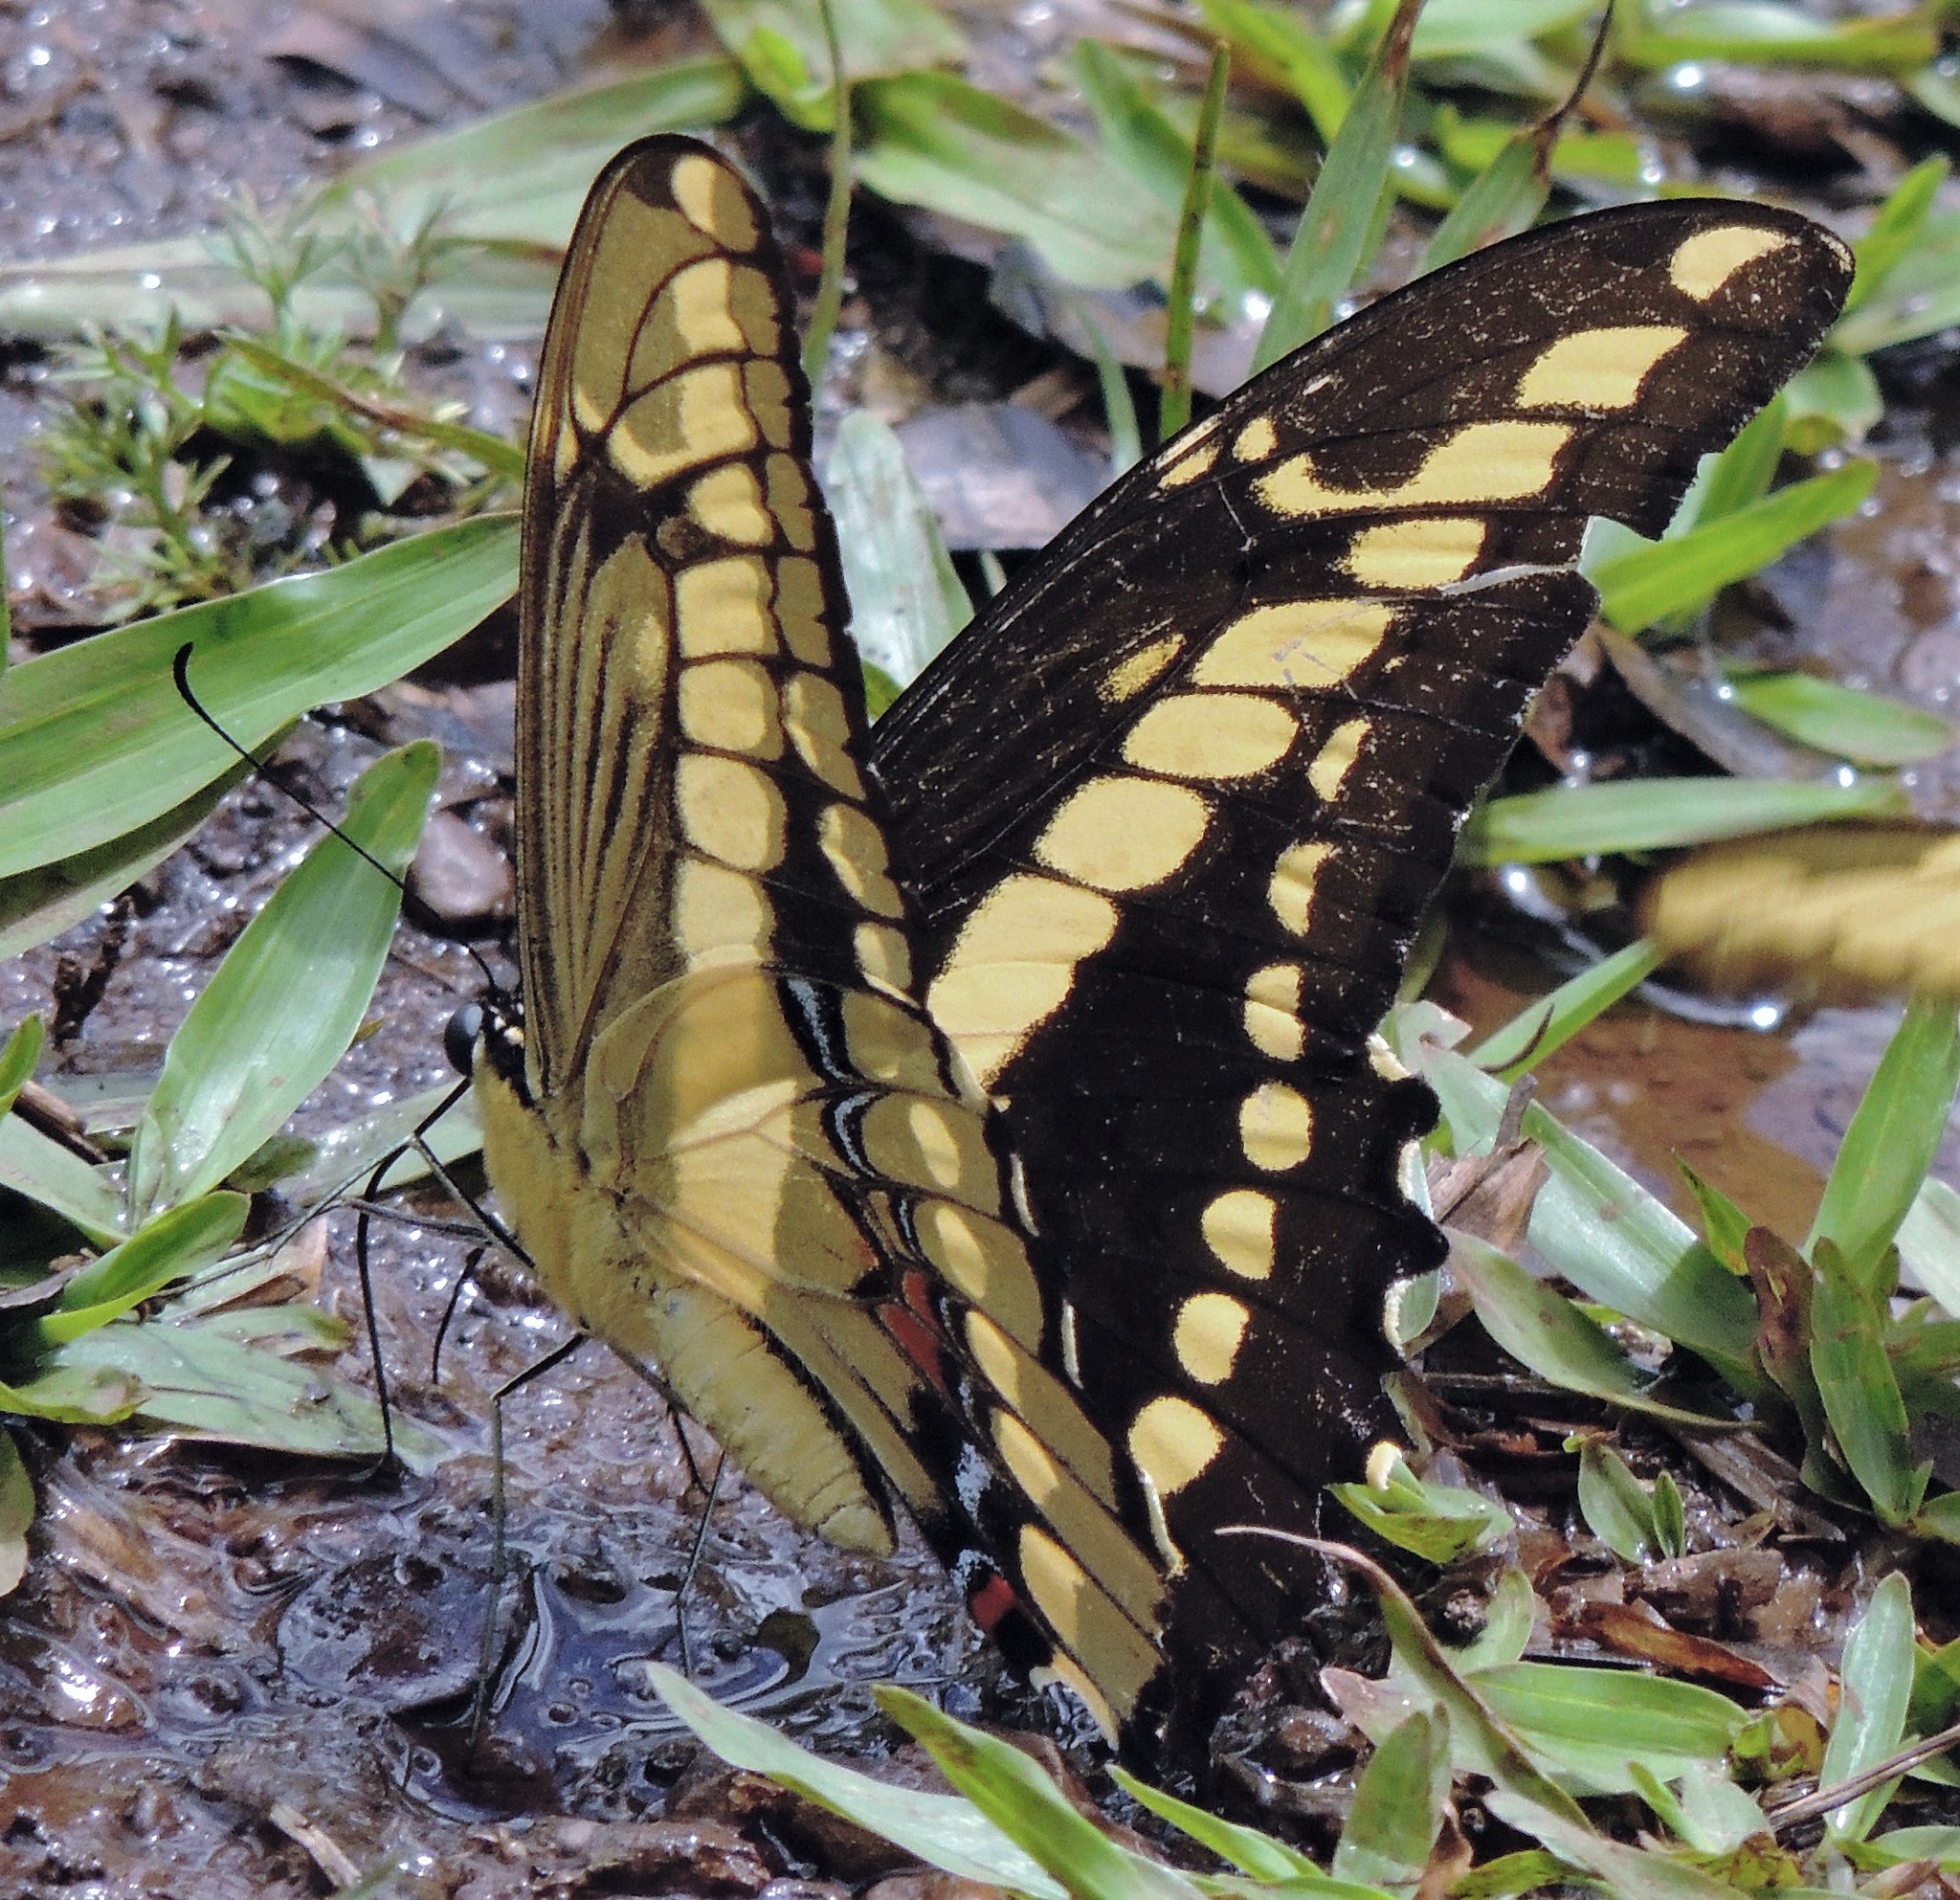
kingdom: Animalia
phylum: Arthropoda
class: Insecta
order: Lepidoptera
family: Papilionidae
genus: Papilio
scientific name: Papilio thoas
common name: King swallowtail
